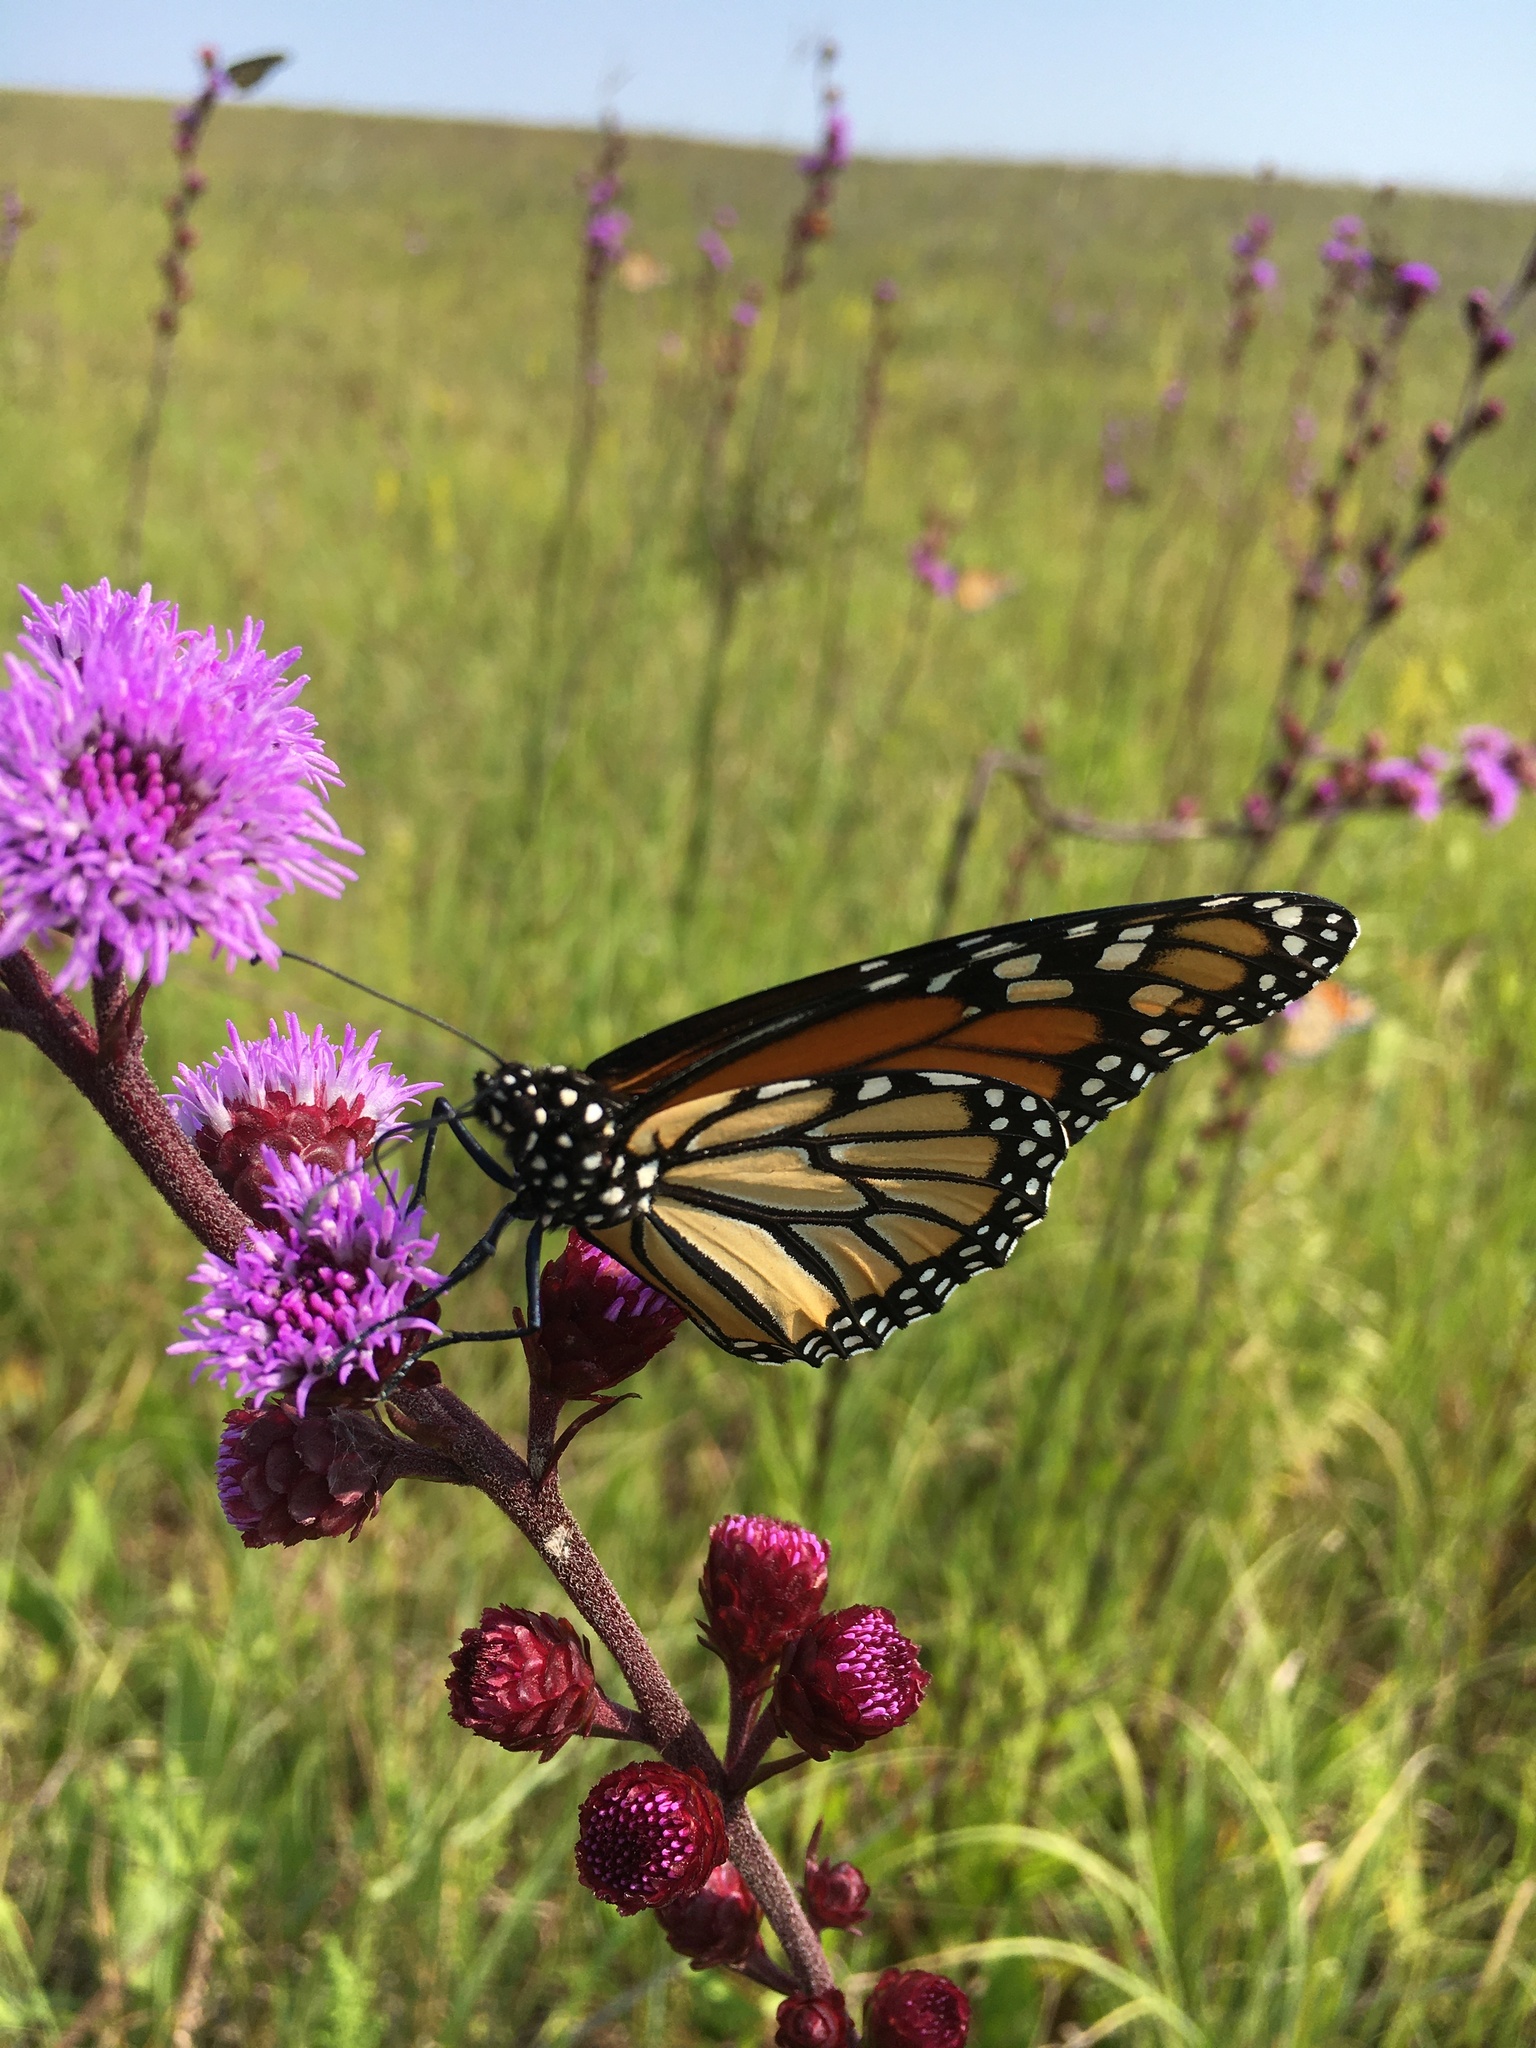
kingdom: Animalia
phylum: Arthropoda
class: Insecta
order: Lepidoptera
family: Nymphalidae
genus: Danaus
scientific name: Danaus plexippus
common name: Monarch
